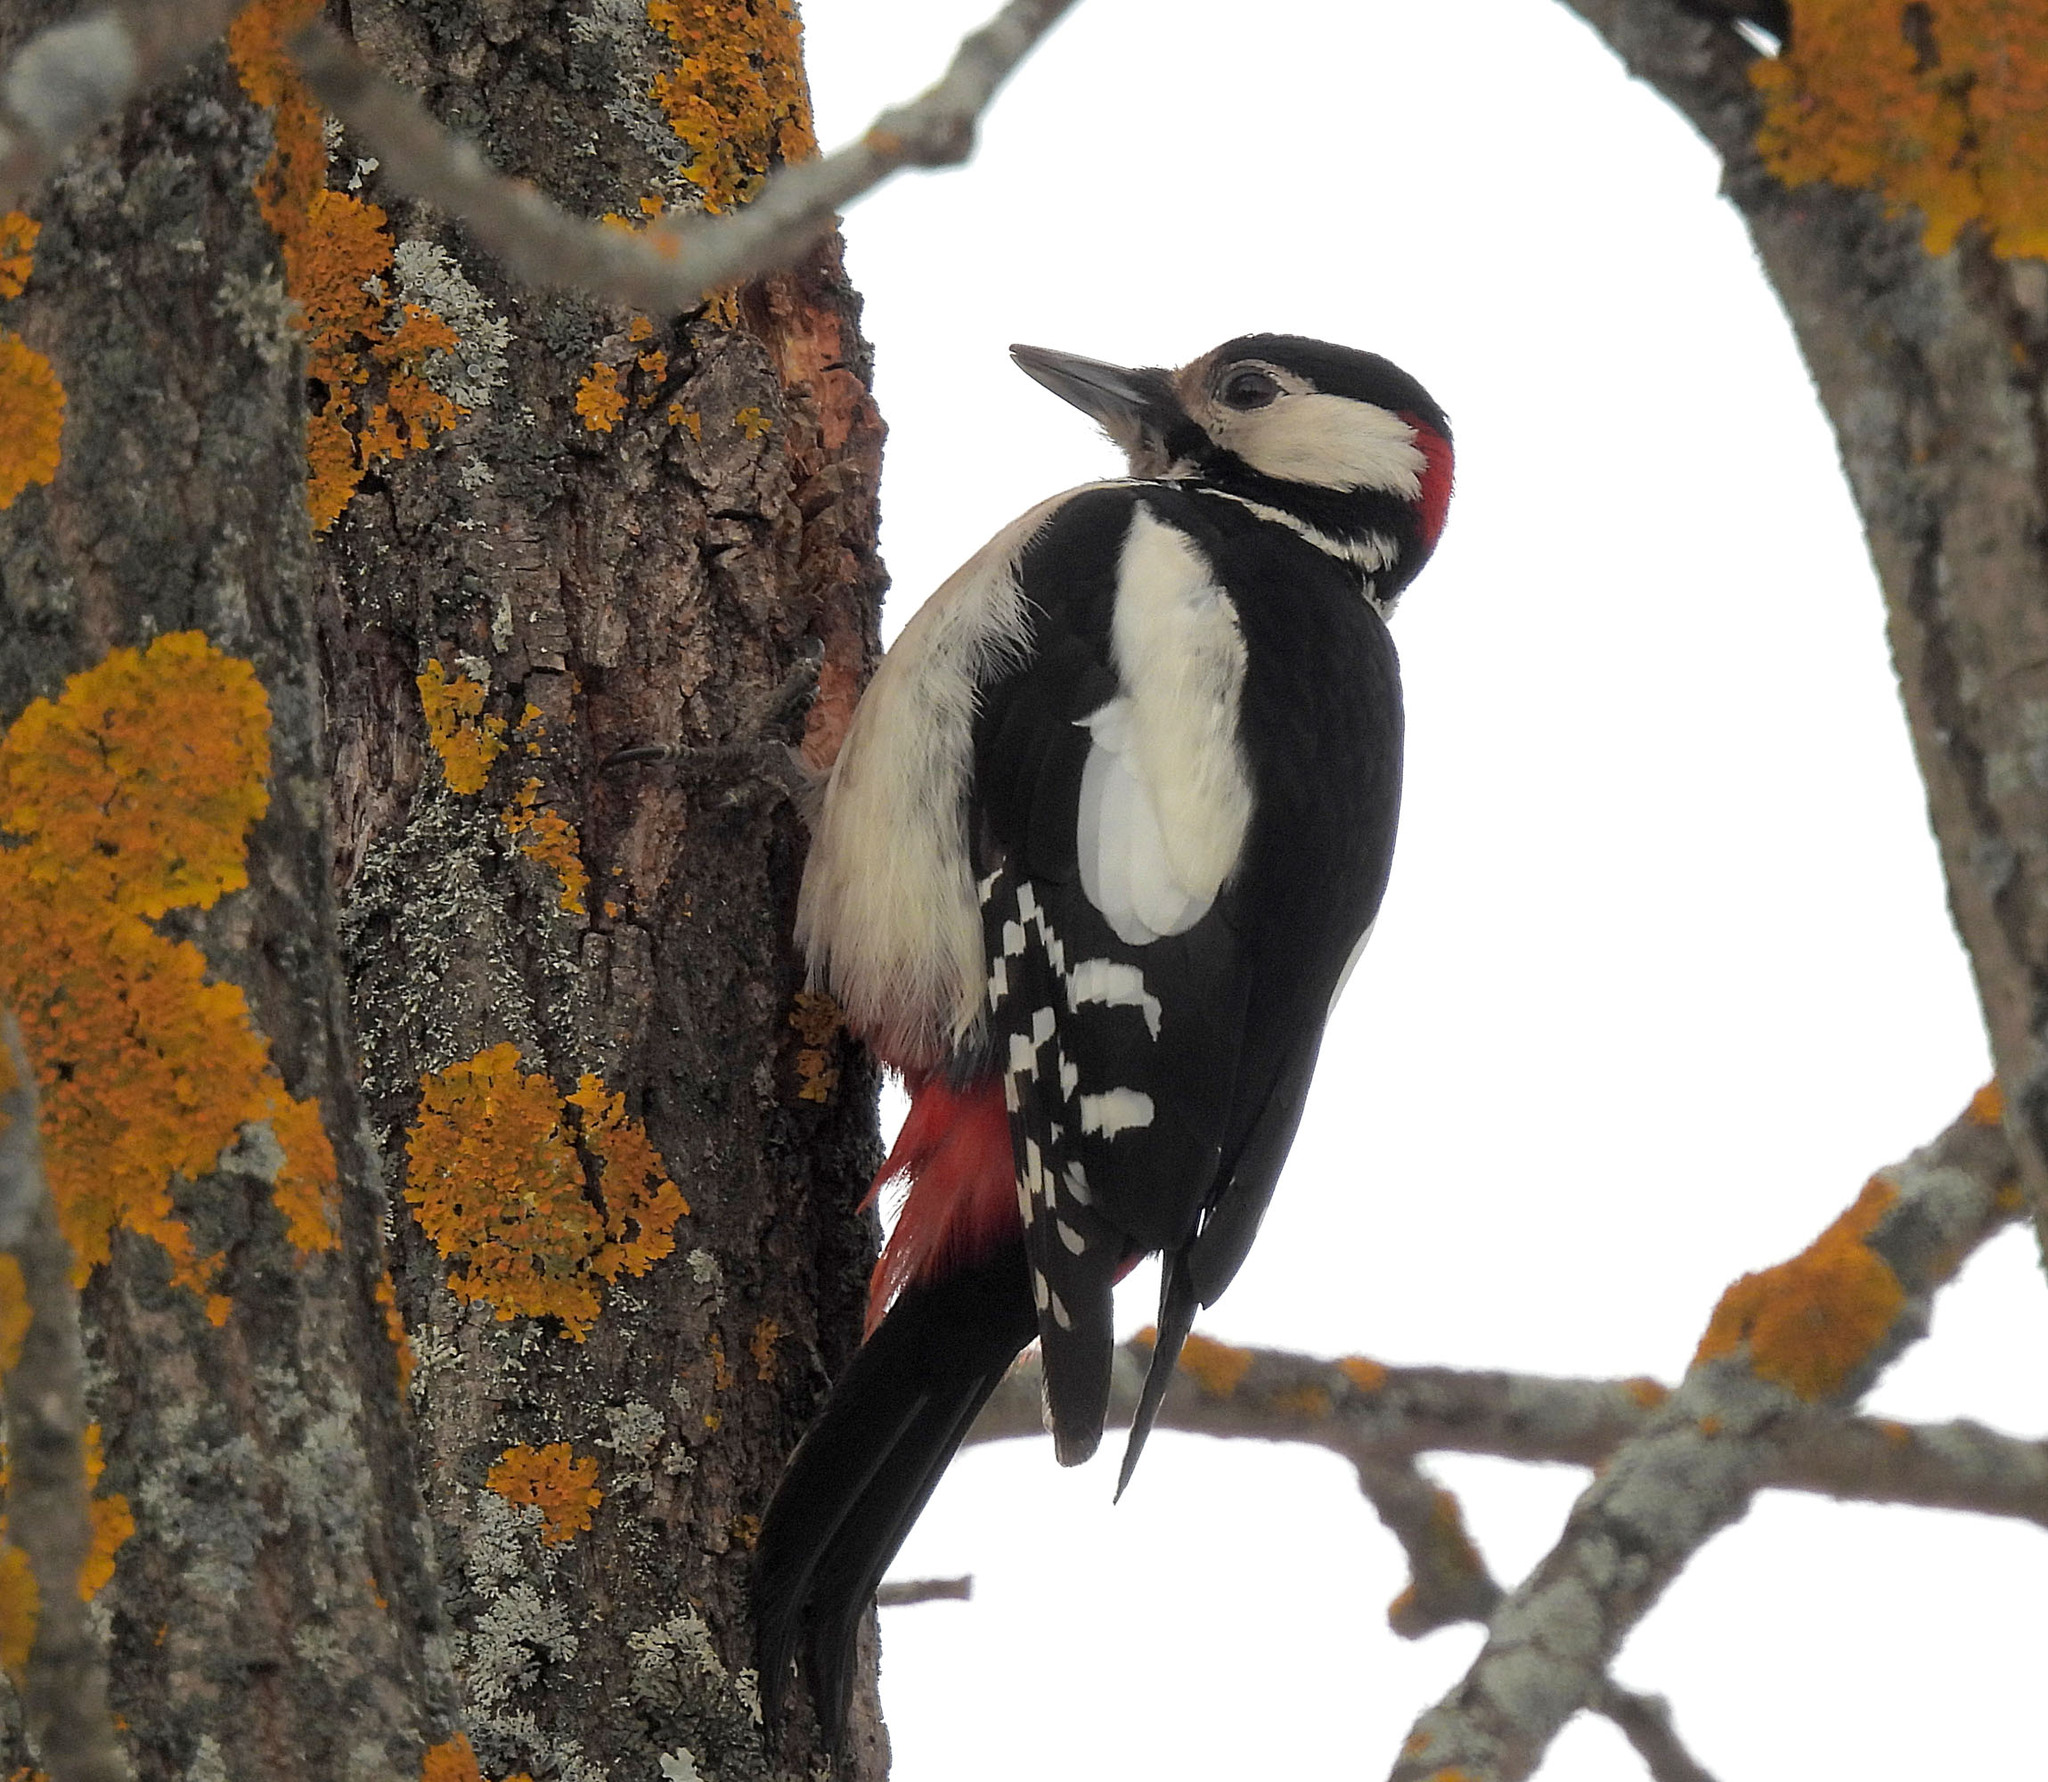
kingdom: Animalia
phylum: Chordata
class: Aves
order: Piciformes
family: Picidae
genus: Dendrocopos
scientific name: Dendrocopos major
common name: Great spotted woodpecker
